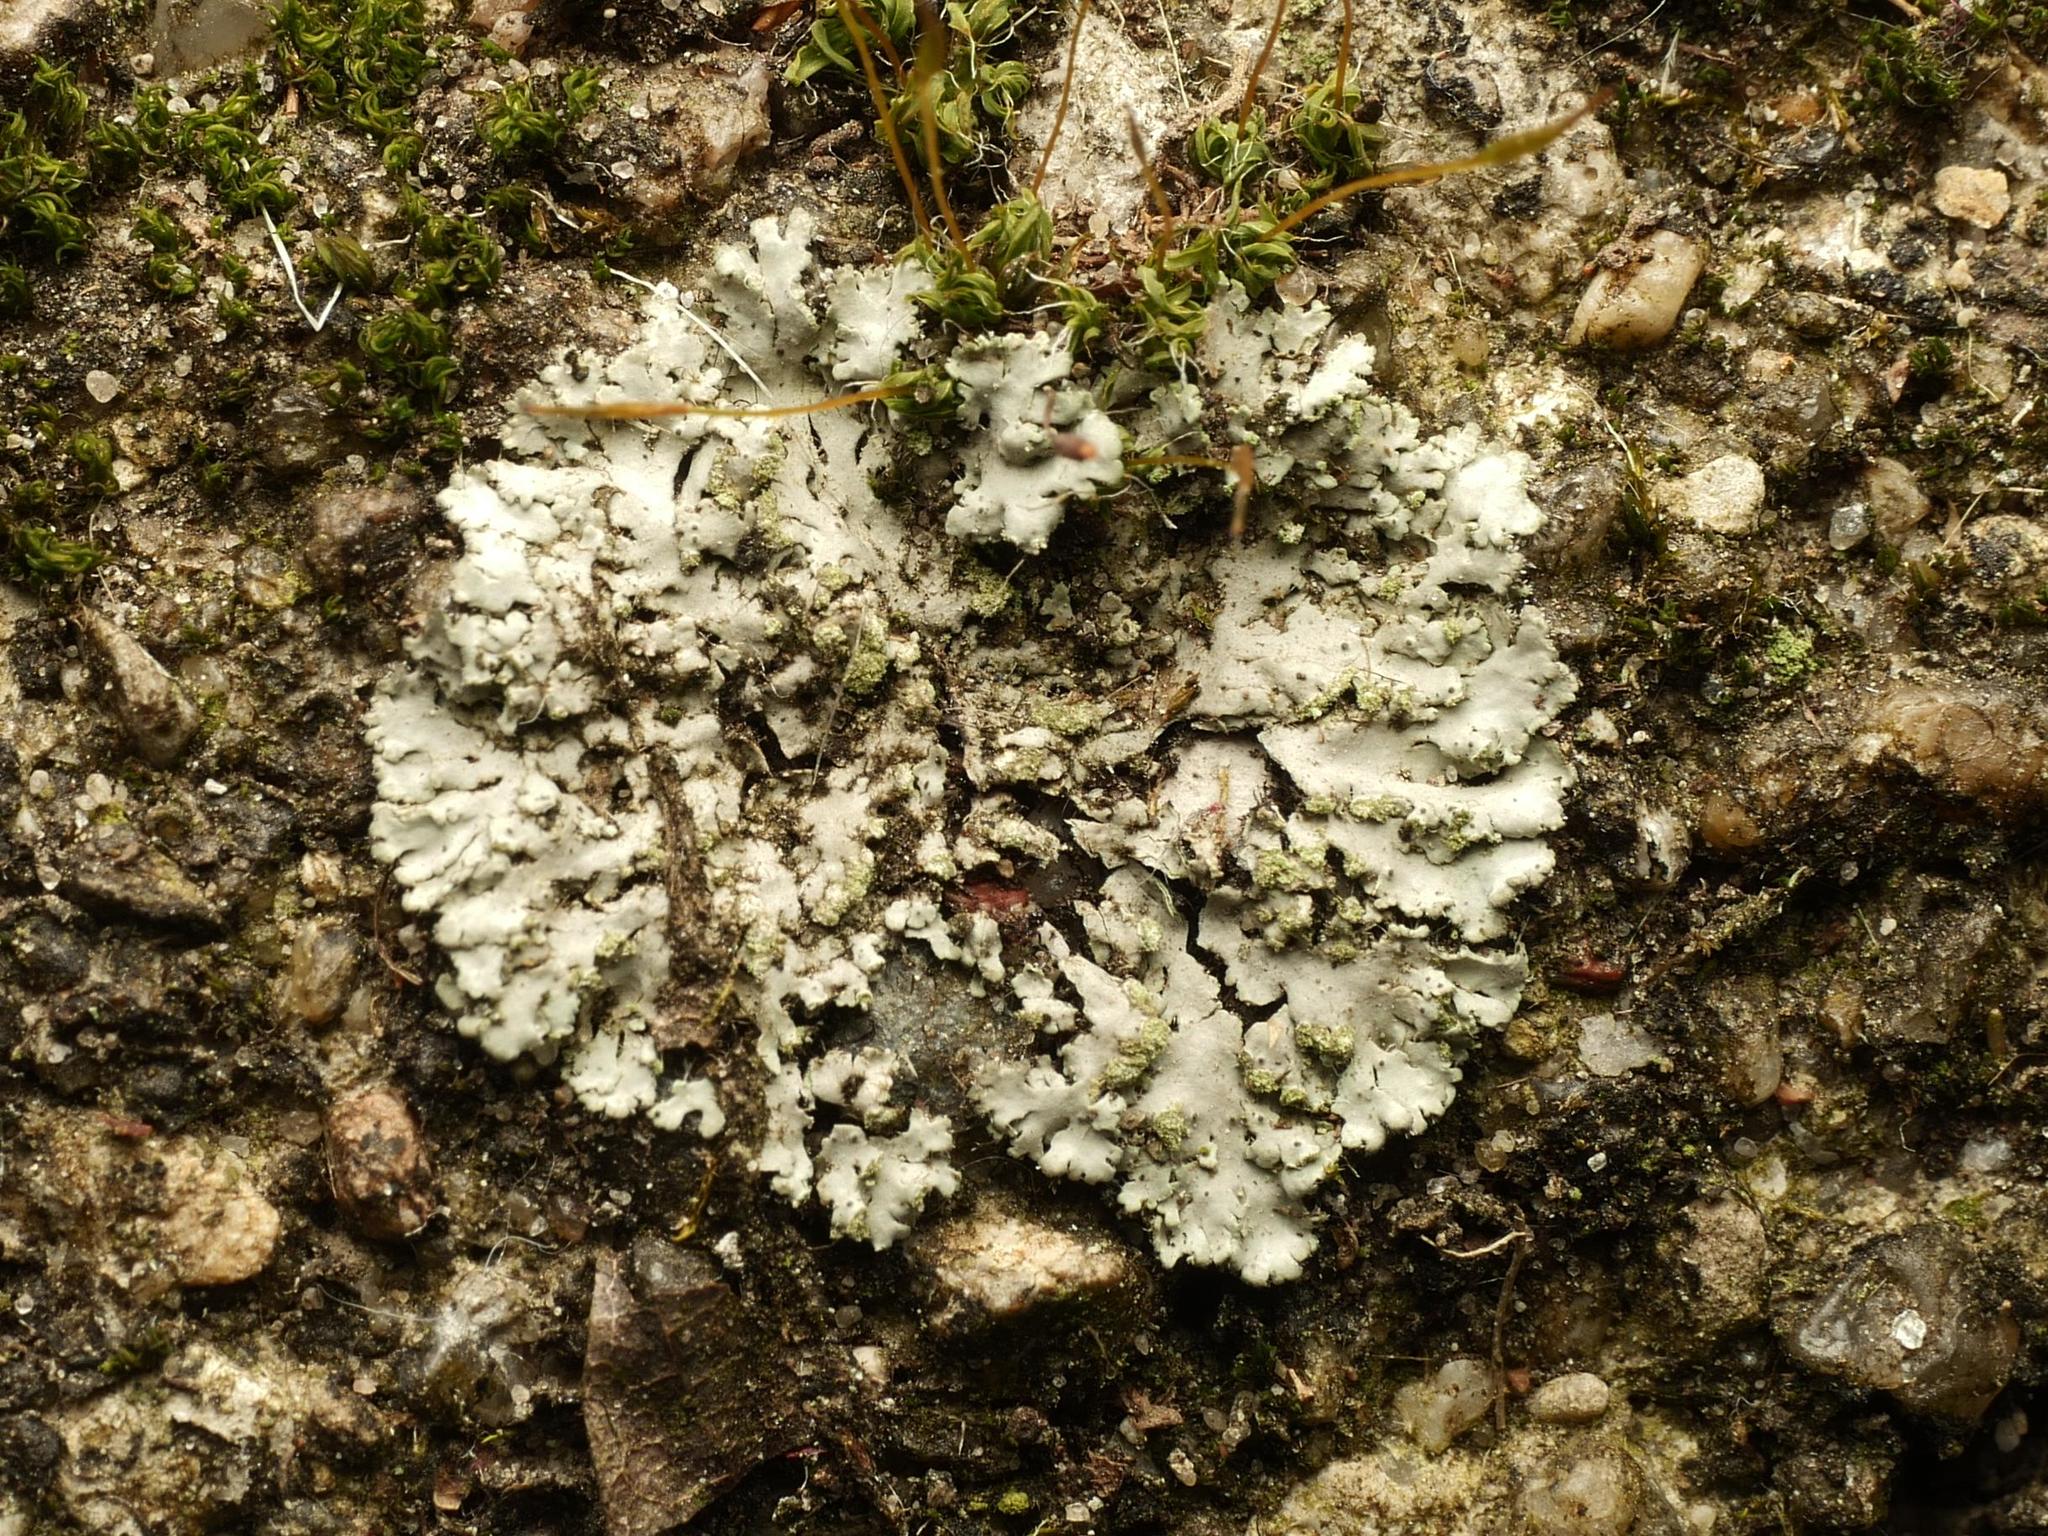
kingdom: Fungi
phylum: Ascomycota
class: Lecanoromycetes
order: Caliciales
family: Physciaceae
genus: Phaeophyscia
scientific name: Phaeophyscia orbicularis
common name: Mealy shadow lichen
